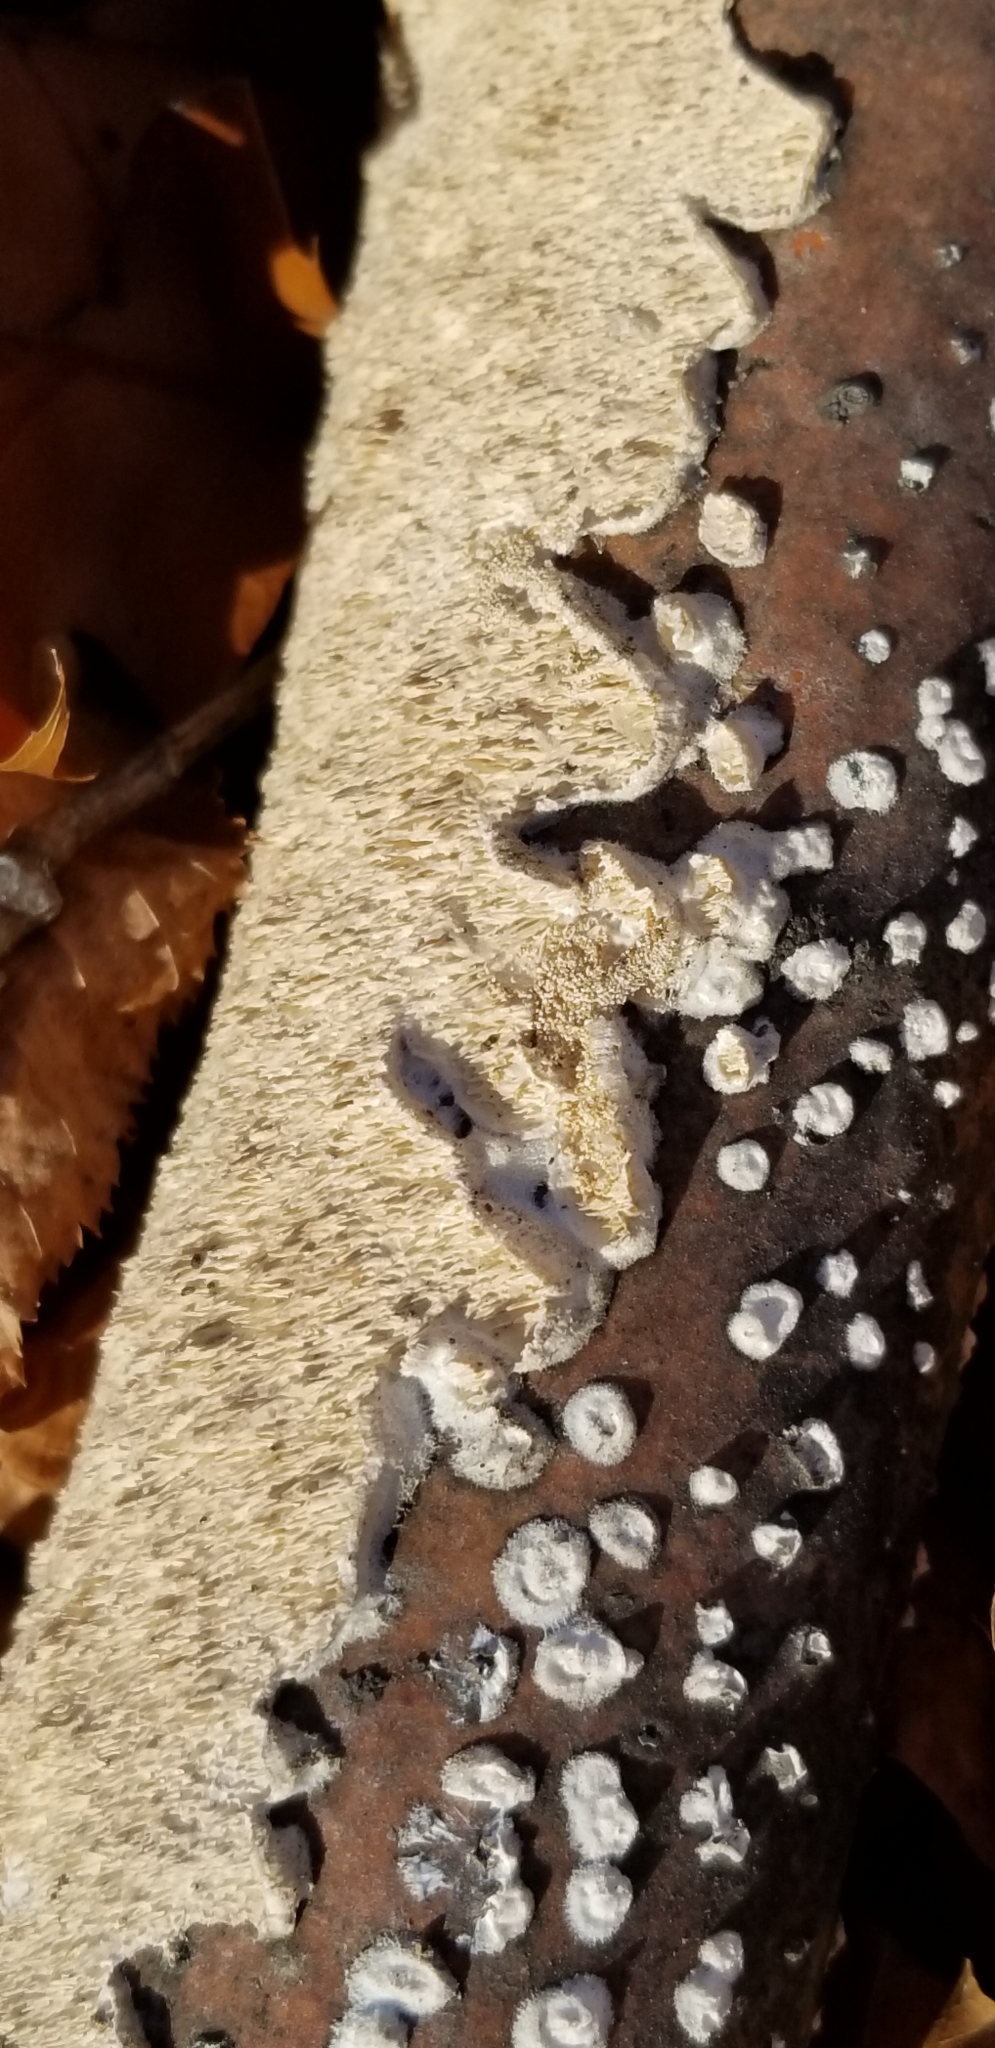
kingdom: Fungi
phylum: Basidiomycota
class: Agaricomycetes
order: Polyporales
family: Irpicaceae
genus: Irpex
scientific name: Irpex lacteus
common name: Milk-white toothed polypore
